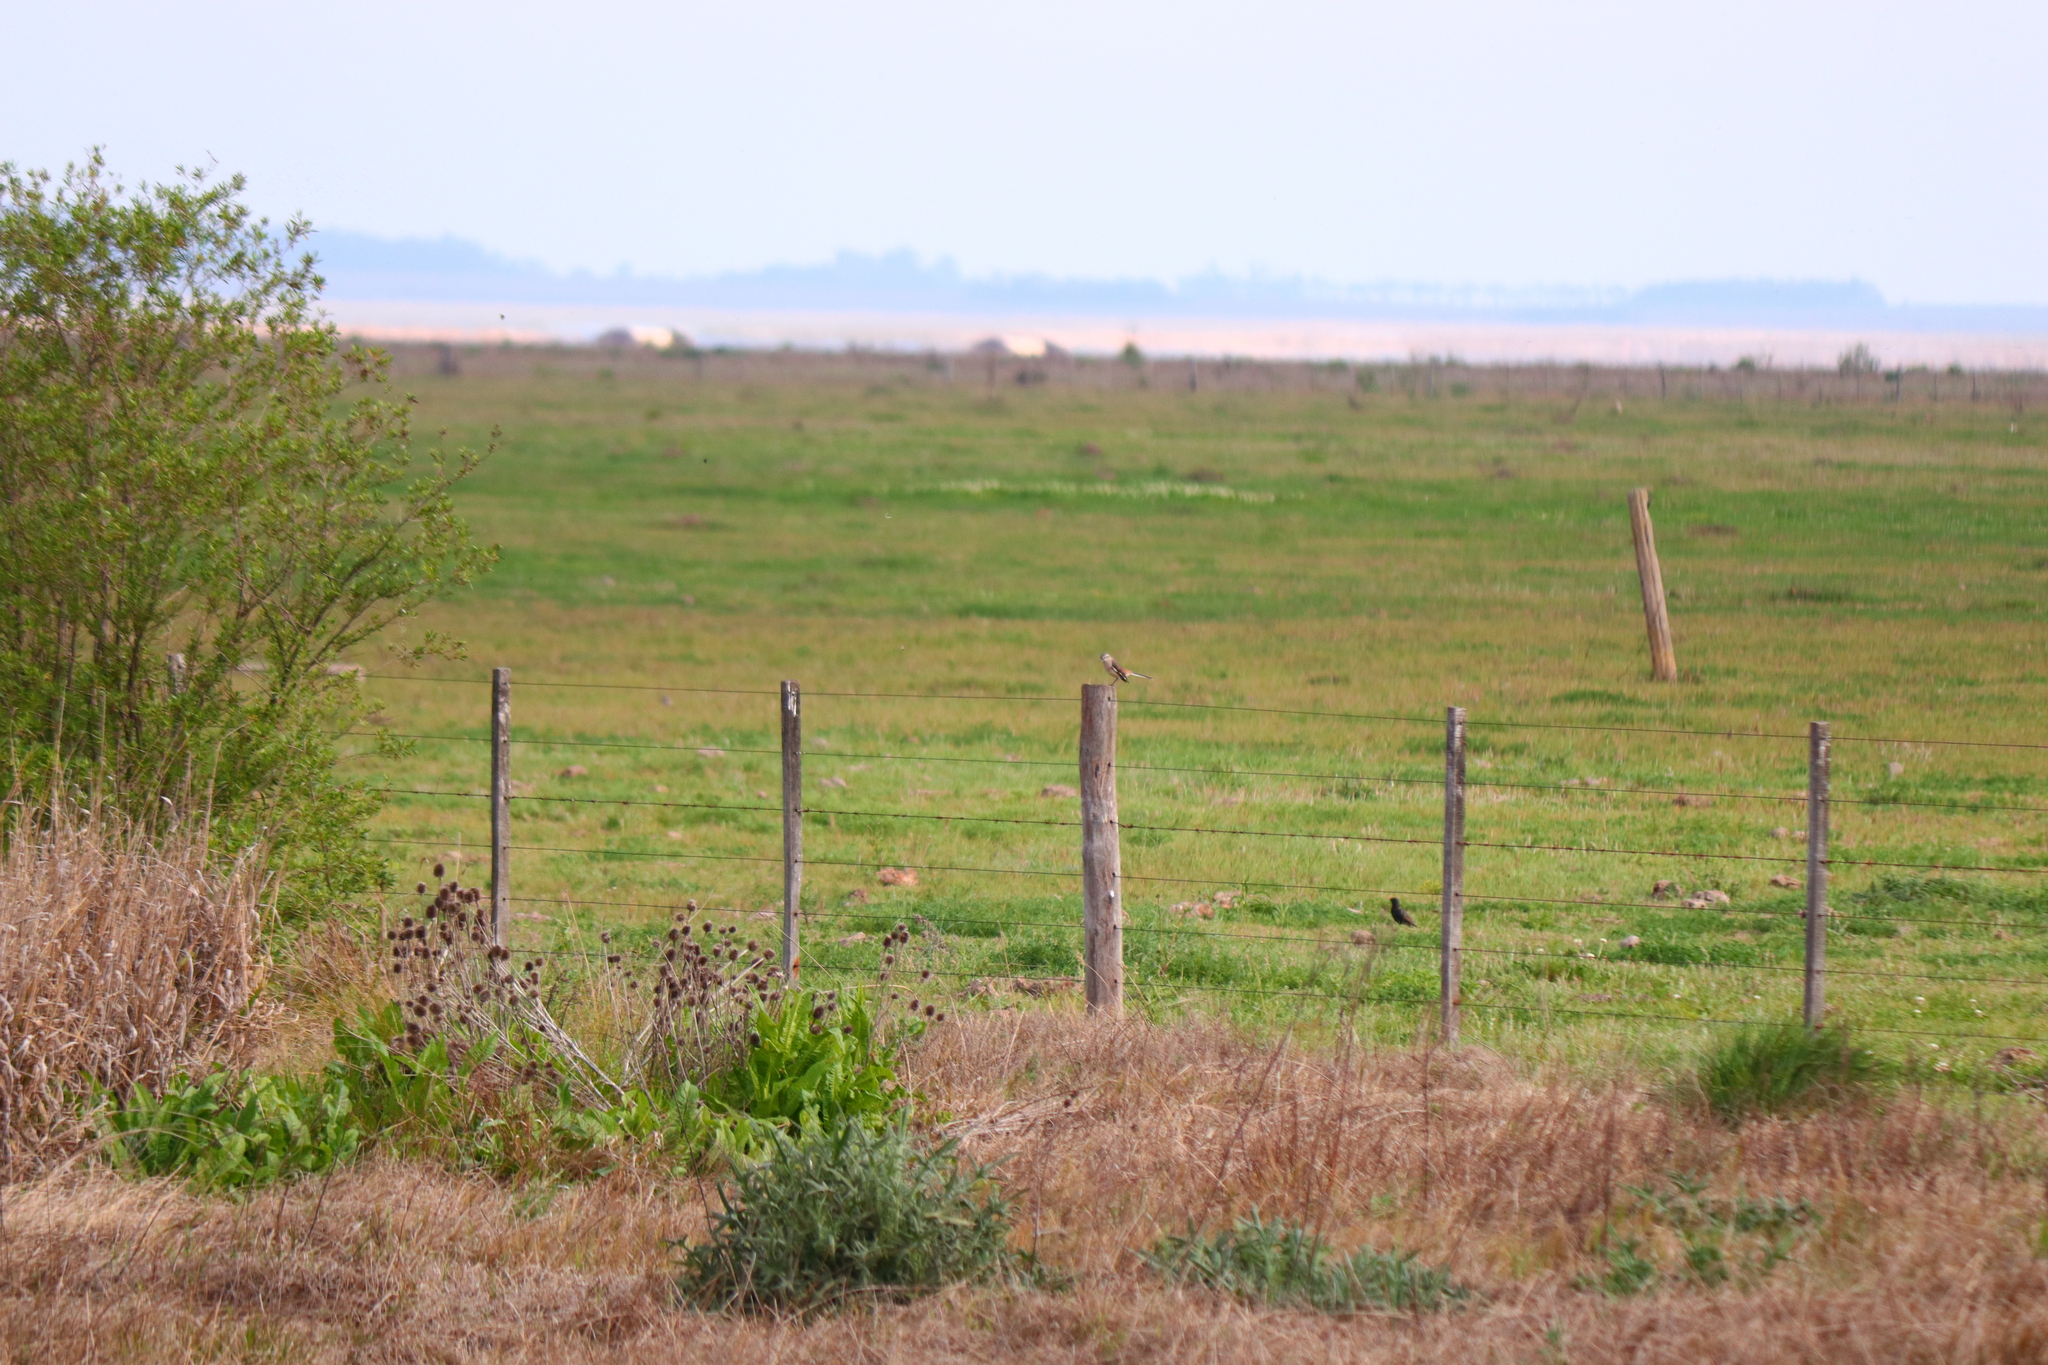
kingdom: Animalia
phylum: Chordata
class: Aves
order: Passeriformes
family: Sturnidae
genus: Sturnus
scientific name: Sturnus vulgaris
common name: Common starling
